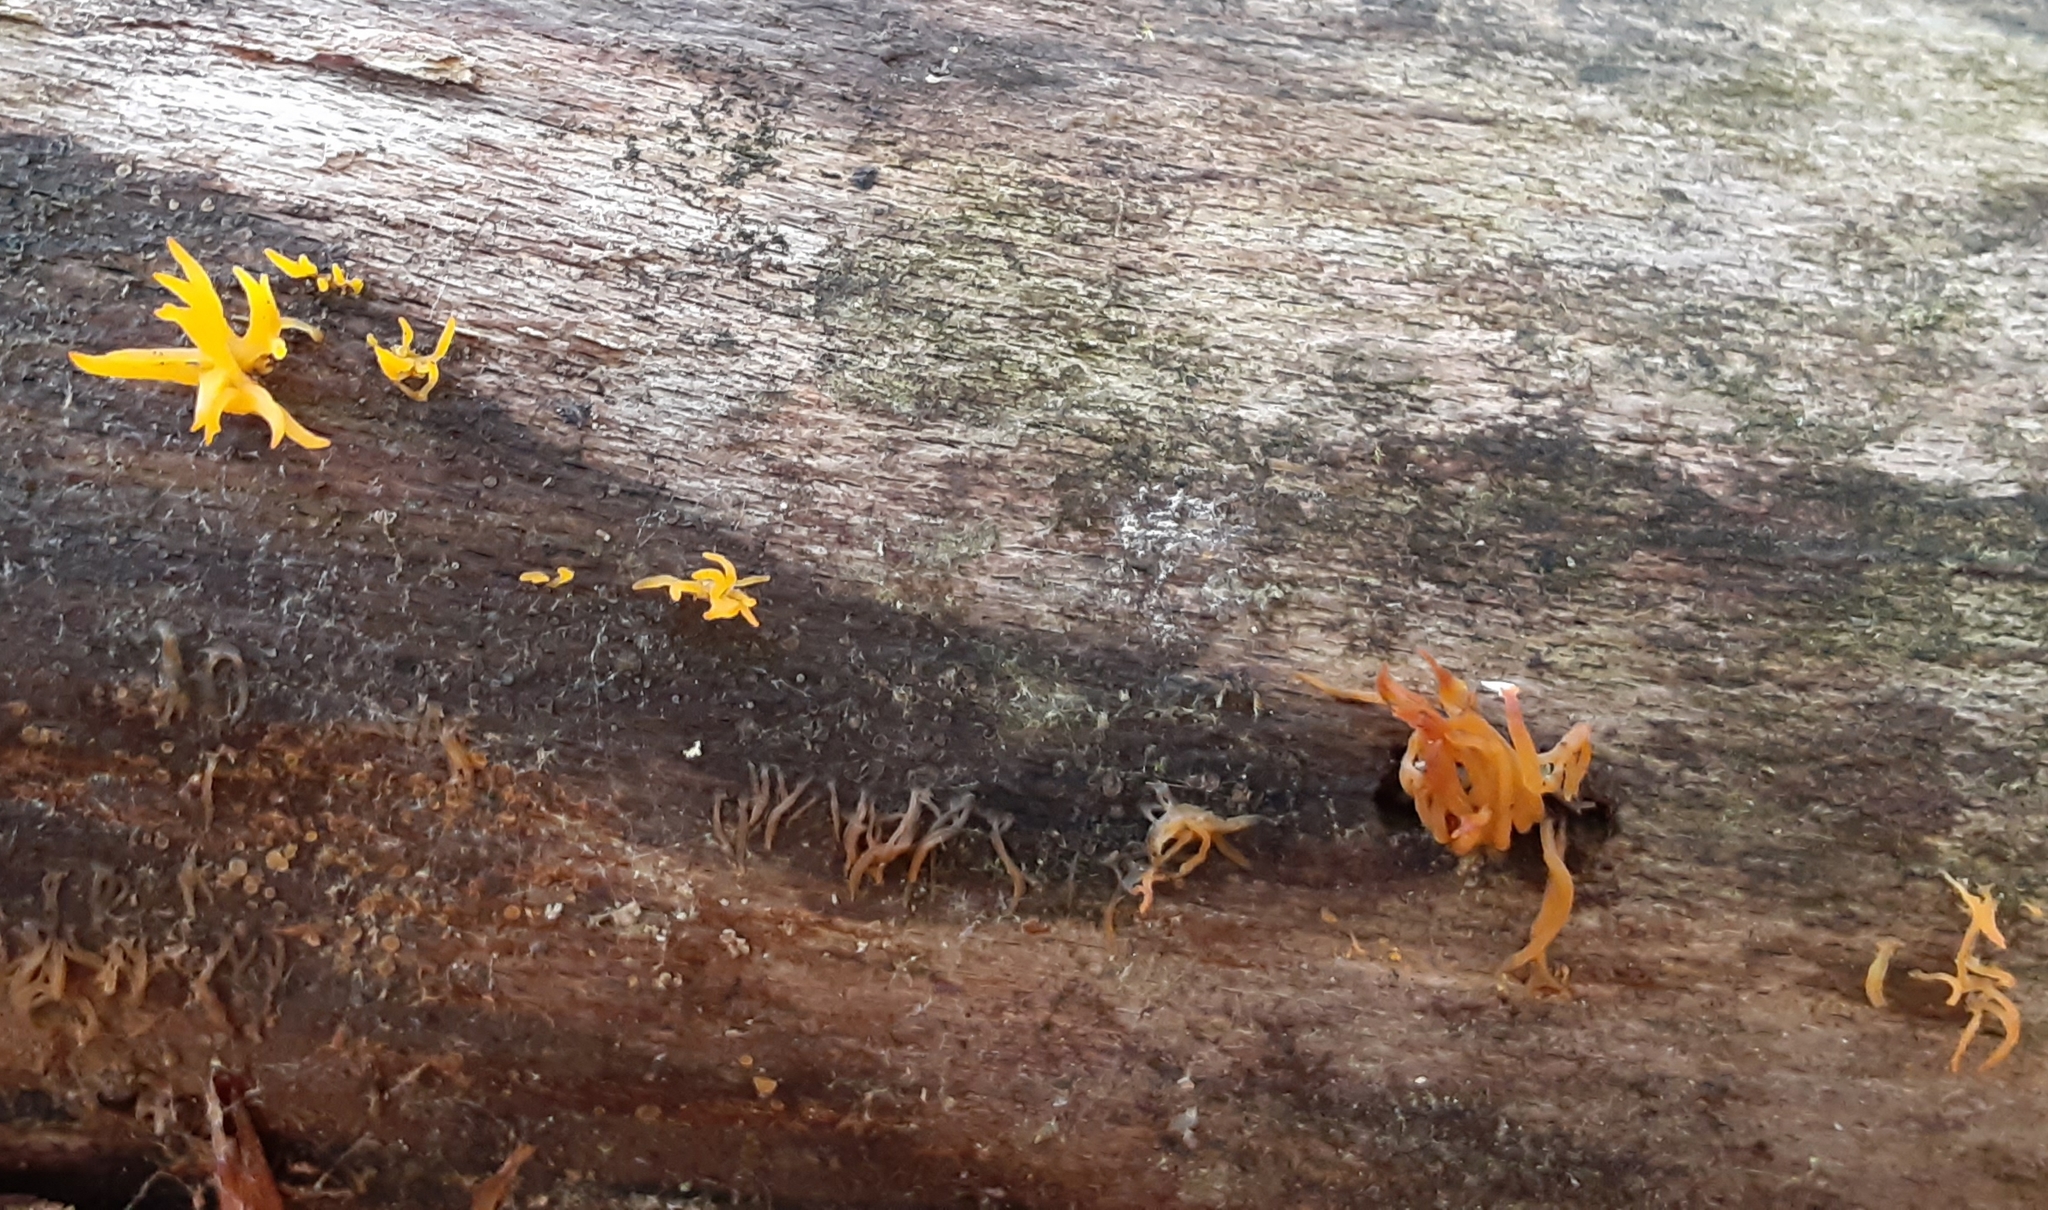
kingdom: Fungi
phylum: Basidiomycota
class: Dacrymycetes
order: Dacrymycetales
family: Dacrymycetaceae
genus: Calocera
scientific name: Calocera cornea
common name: Small stagshorn
